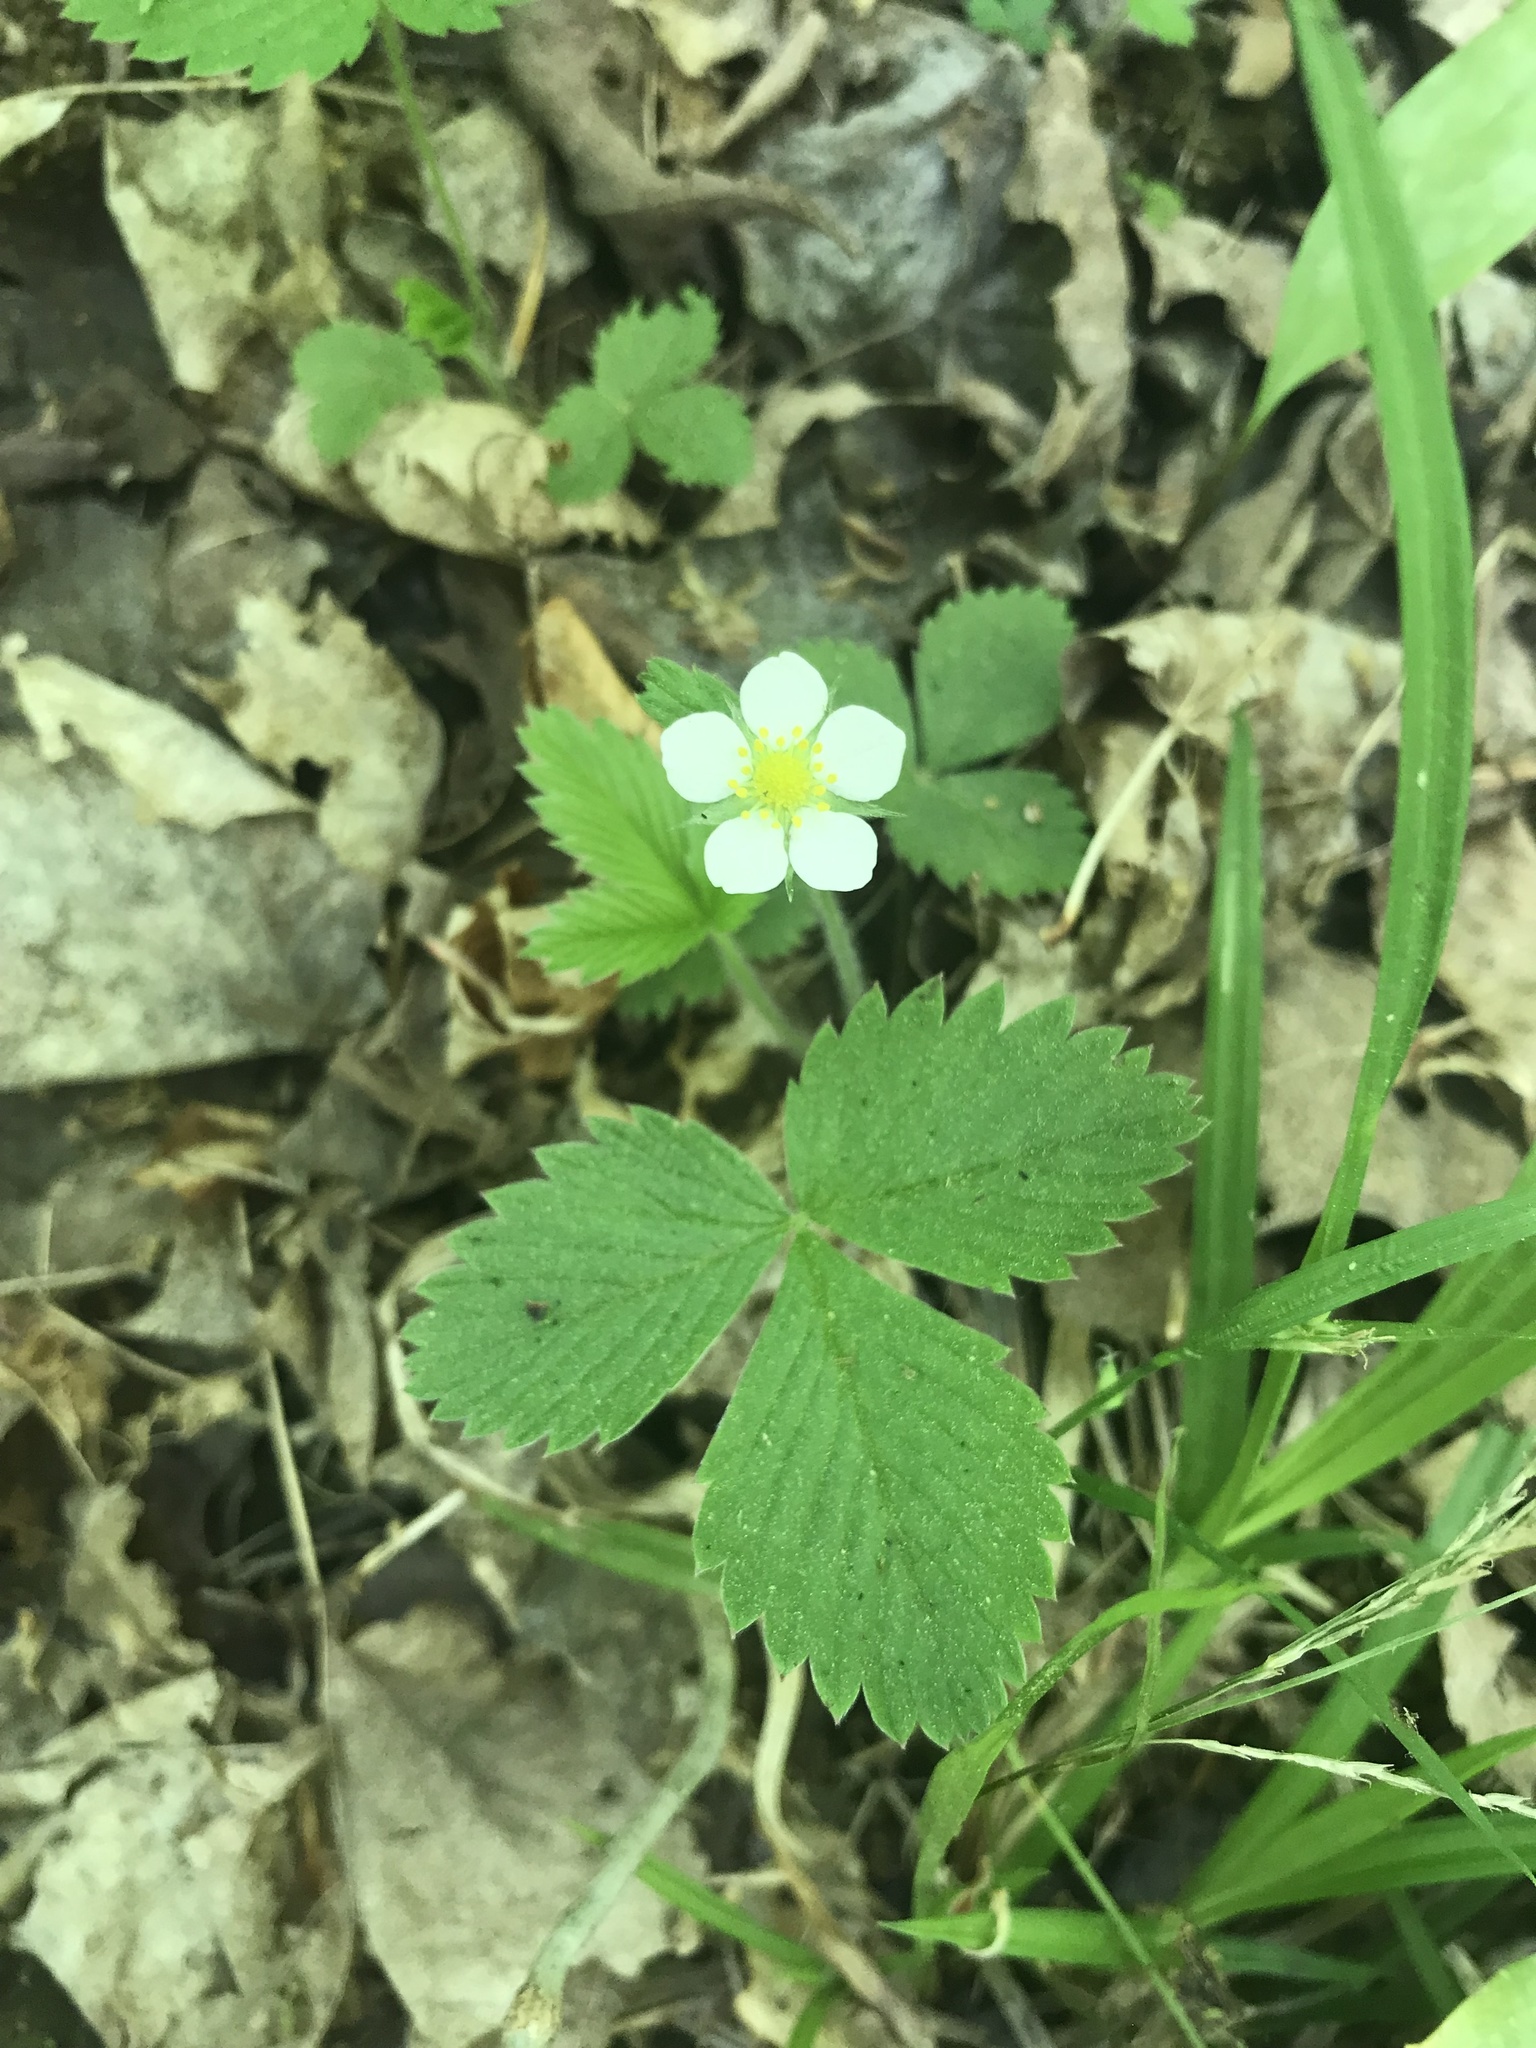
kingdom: Plantae
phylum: Tracheophyta
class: Magnoliopsida
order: Rosales
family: Rosaceae
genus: Fragaria
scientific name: Fragaria virginiana
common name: Thickleaved wild strawberry
